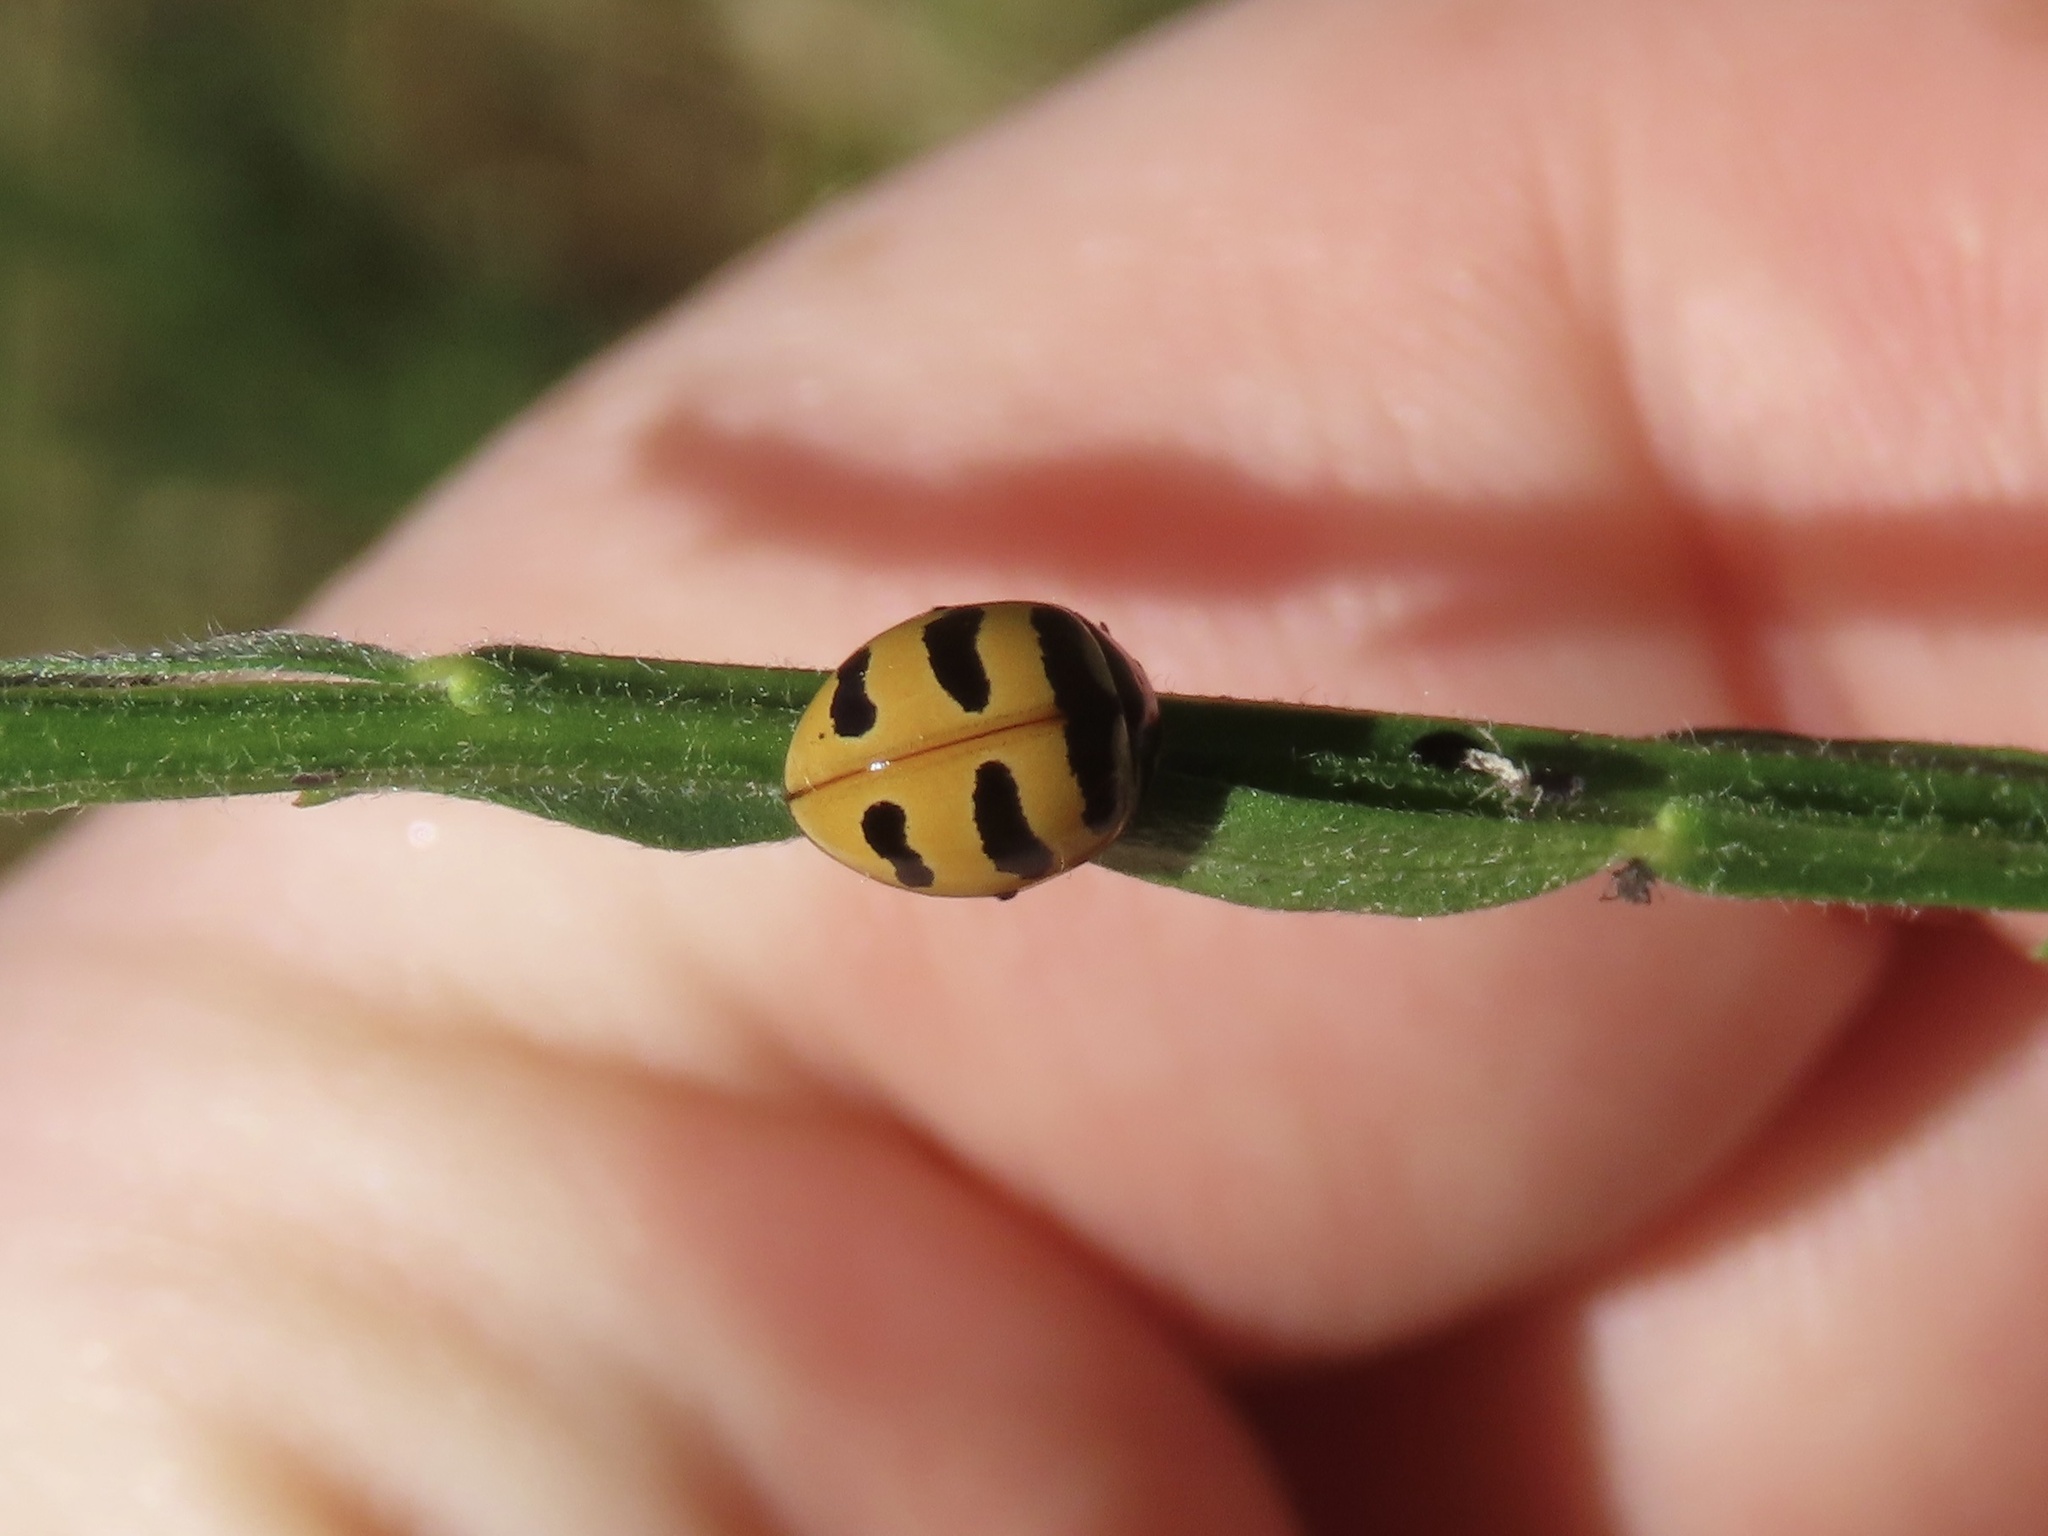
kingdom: Animalia
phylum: Arthropoda
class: Insecta
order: Coleoptera
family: Coccinellidae
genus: Coccinella
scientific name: Coccinella trifasciata
